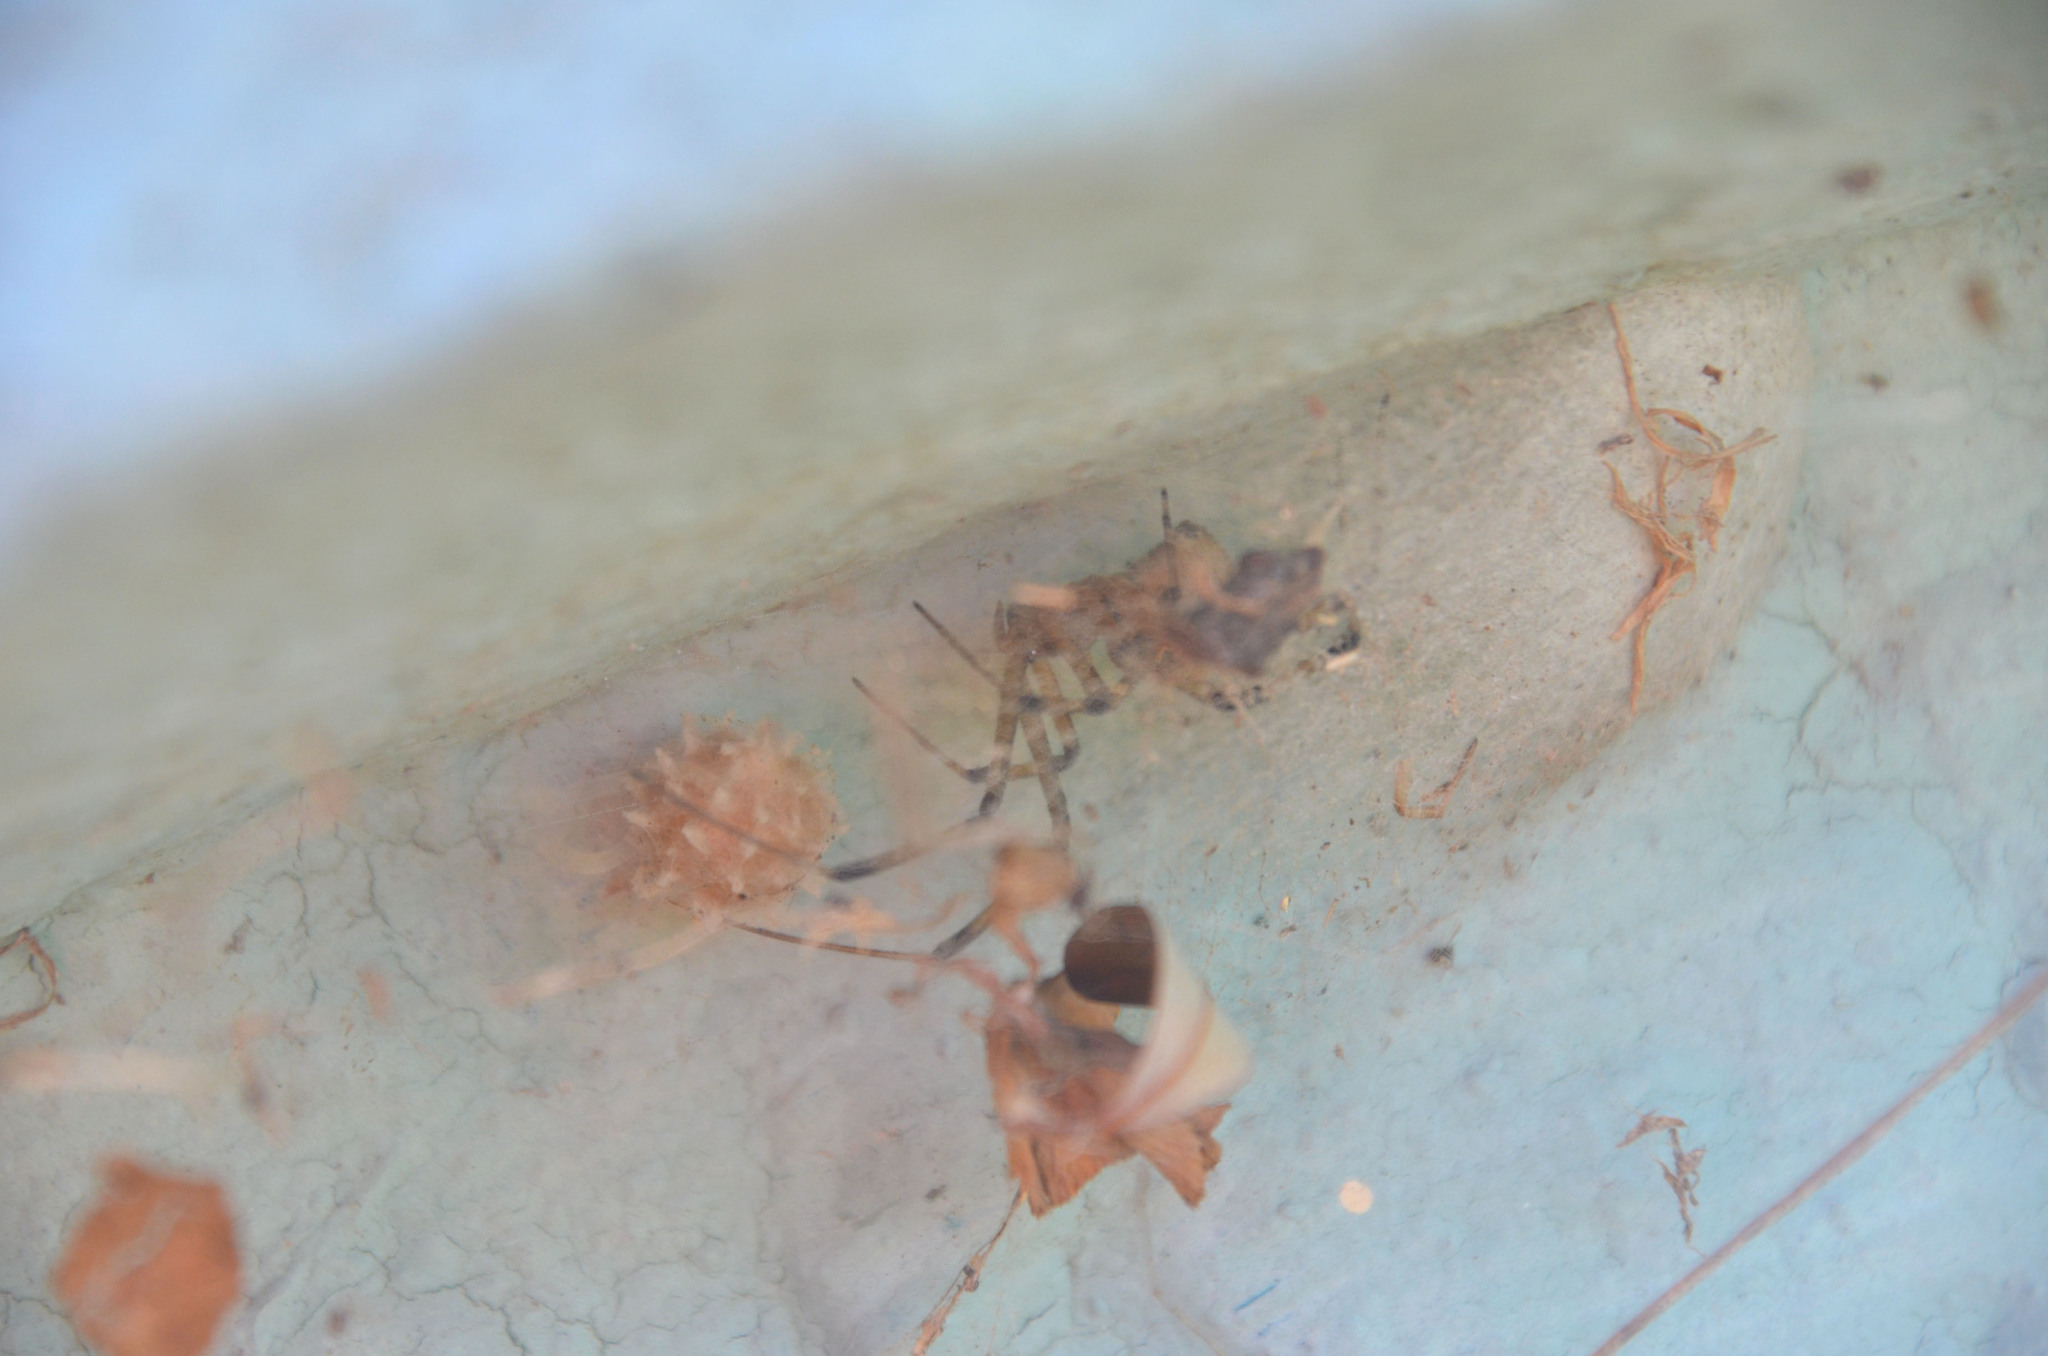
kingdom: Animalia
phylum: Arthropoda
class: Arachnida
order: Araneae
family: Theridiidae
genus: Latrodectus
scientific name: Latrodectus geometricus
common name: Brown widow spider
